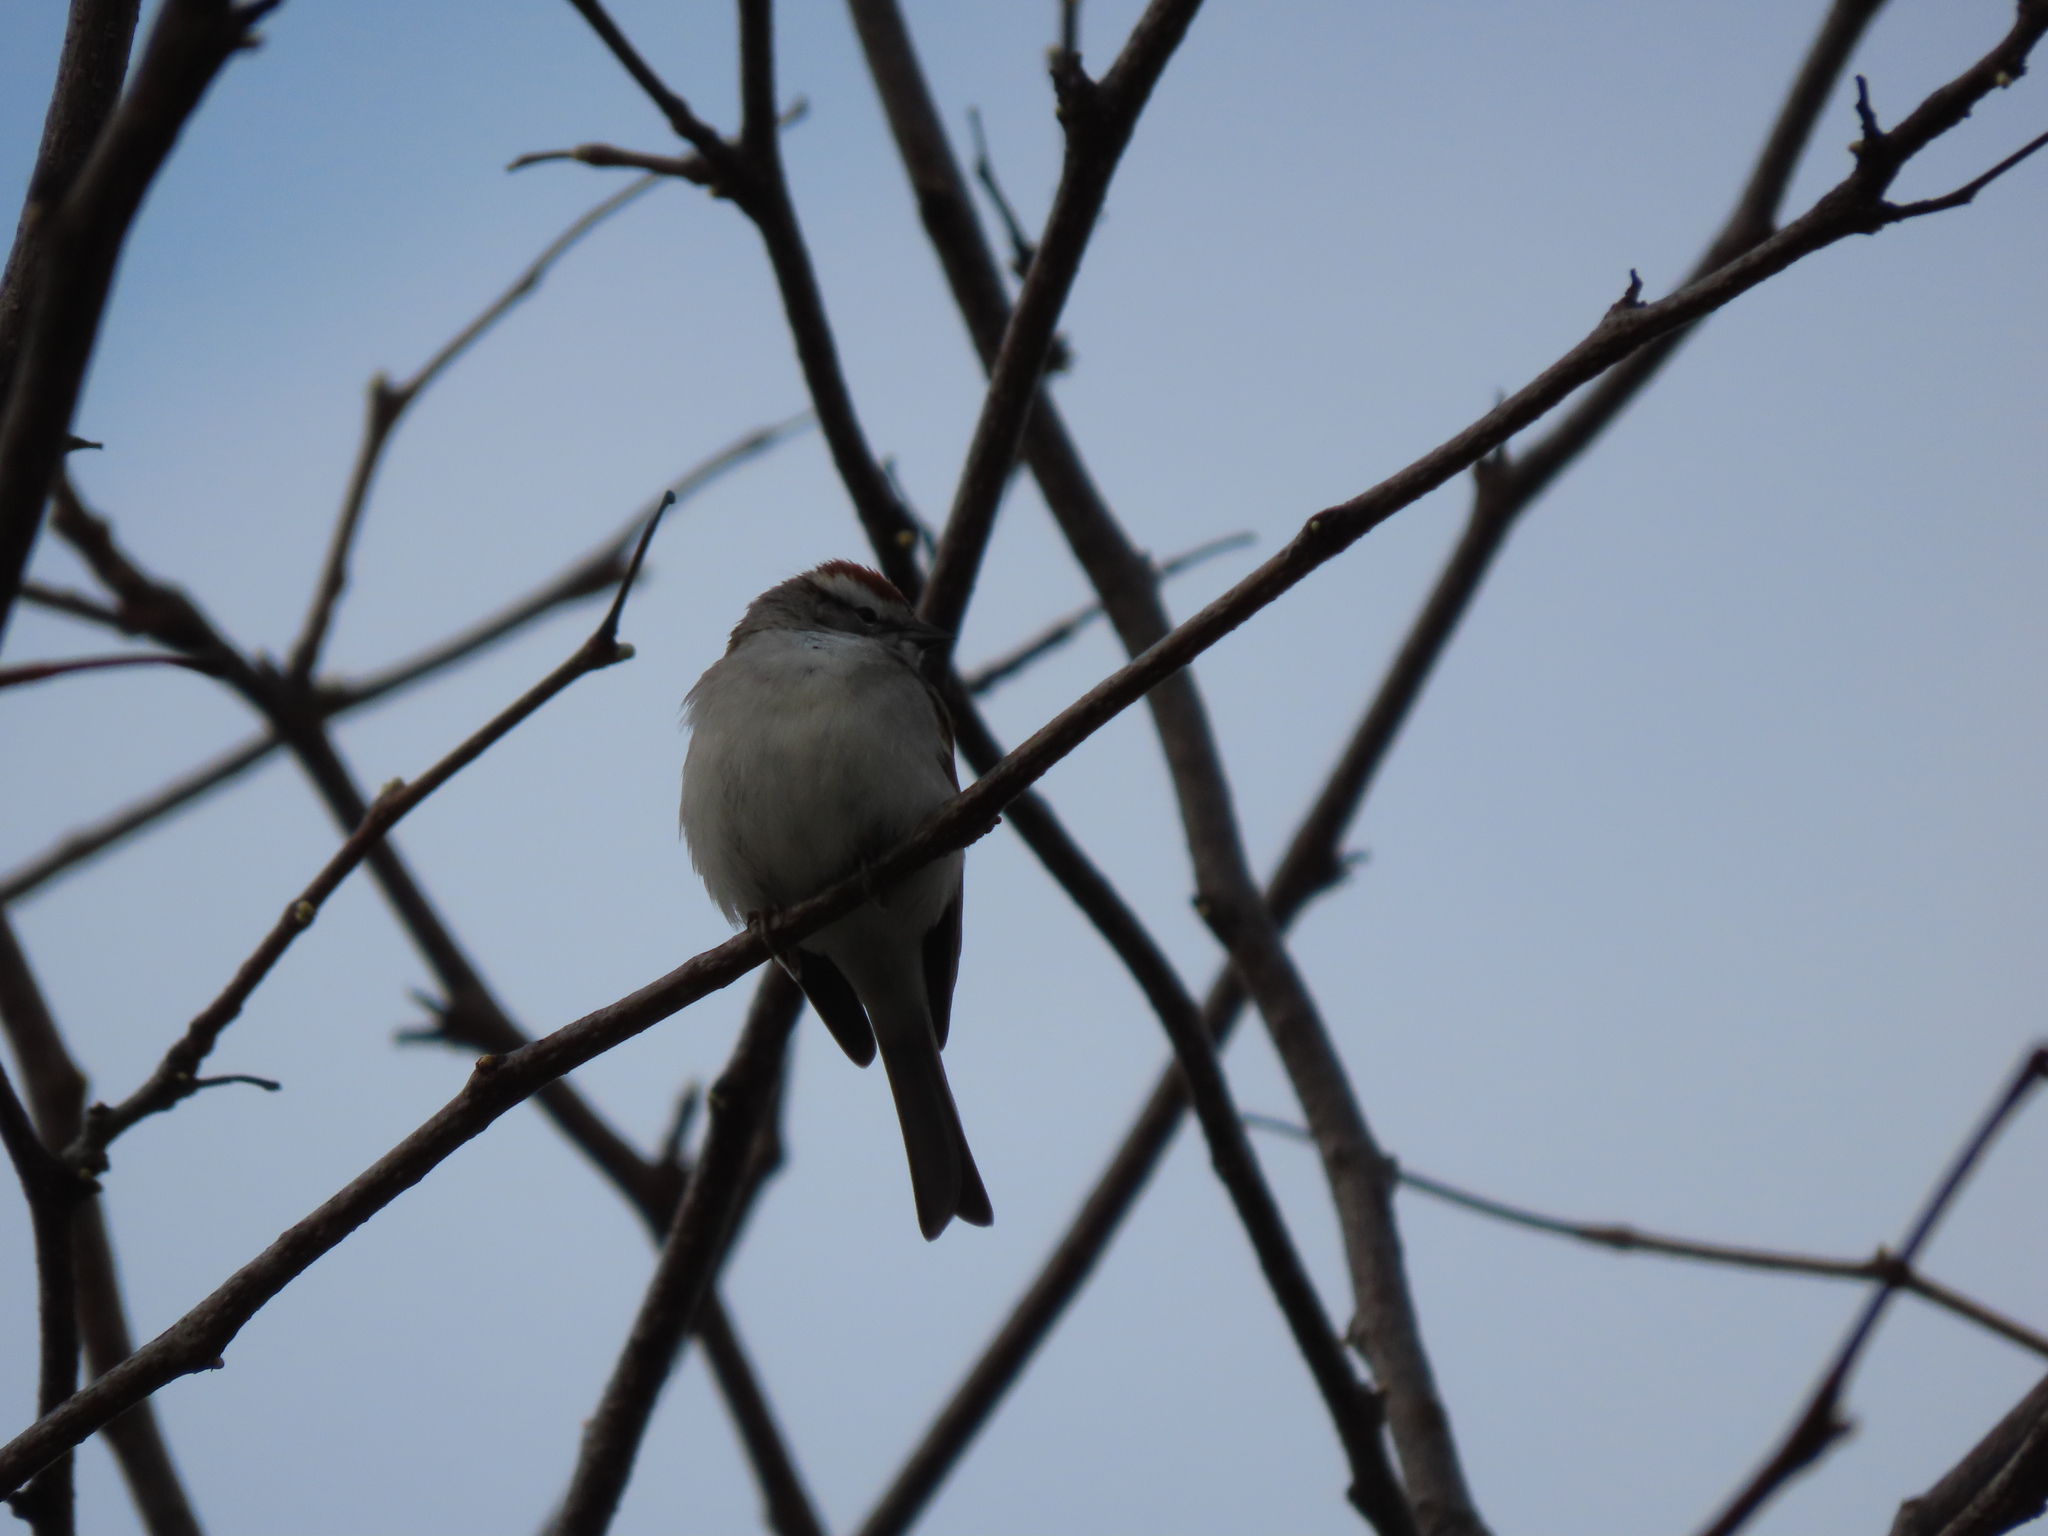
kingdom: Animalia
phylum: Chordata
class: Aves
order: Passeriformes
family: Passerellidae
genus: Spizella
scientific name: Spizella passerina
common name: Chipping sparrow
